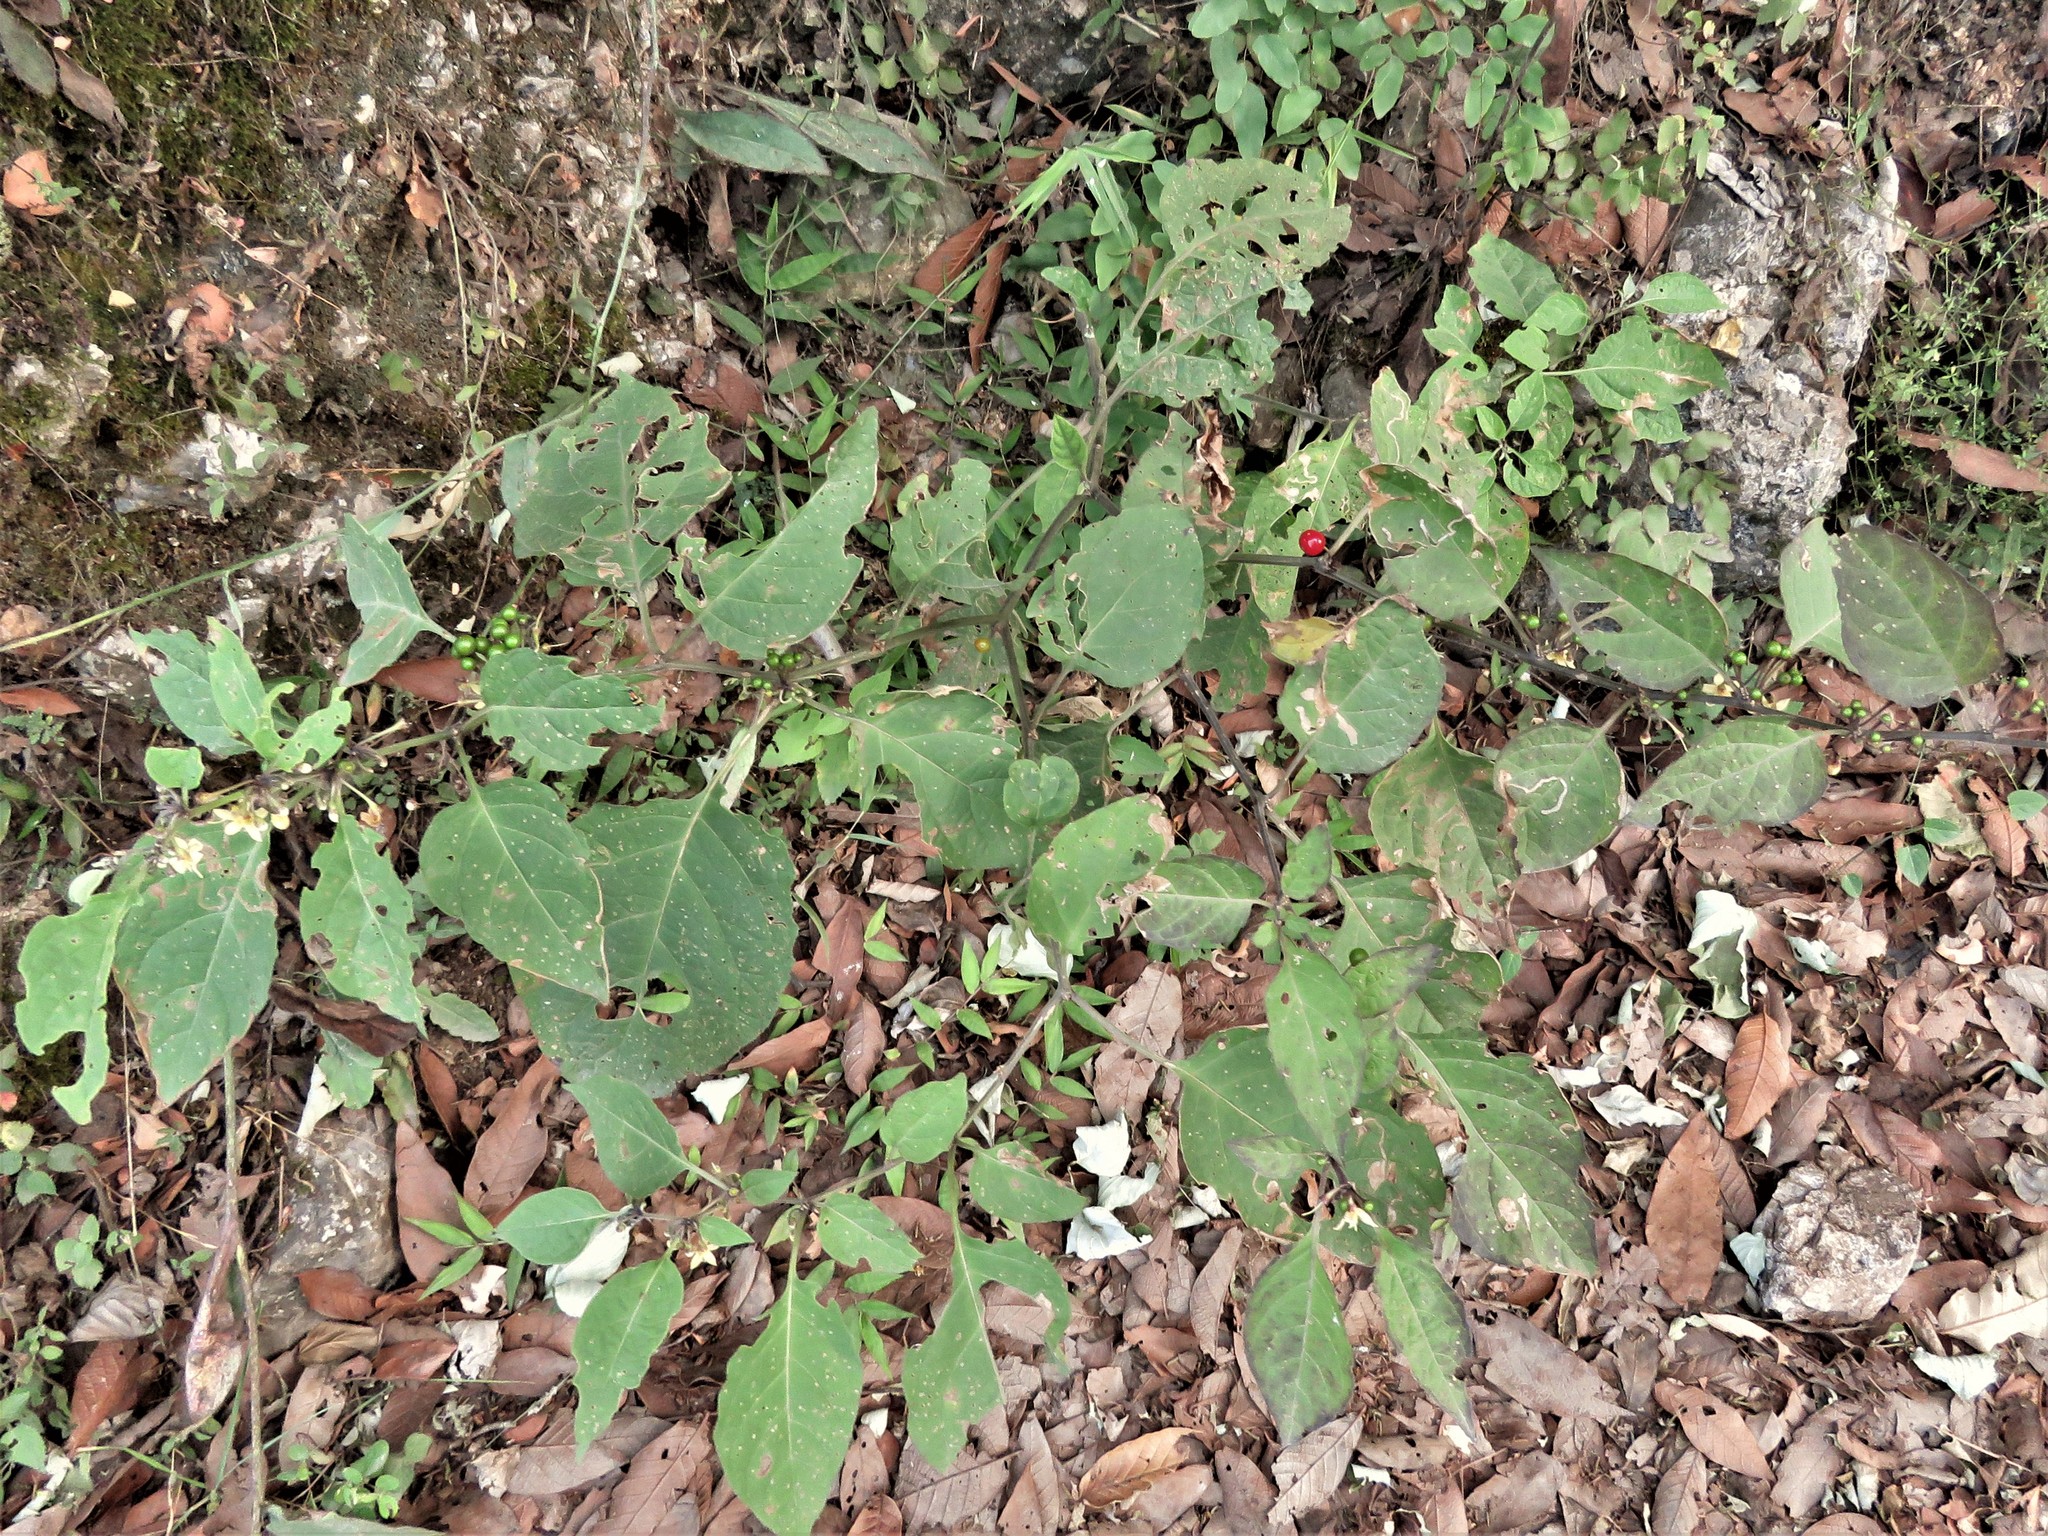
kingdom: Plantae
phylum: Tracheophyta
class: Magnoliopsida
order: Solanales
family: Solanaceae
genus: Witheringia
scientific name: Witheringia mexicana
